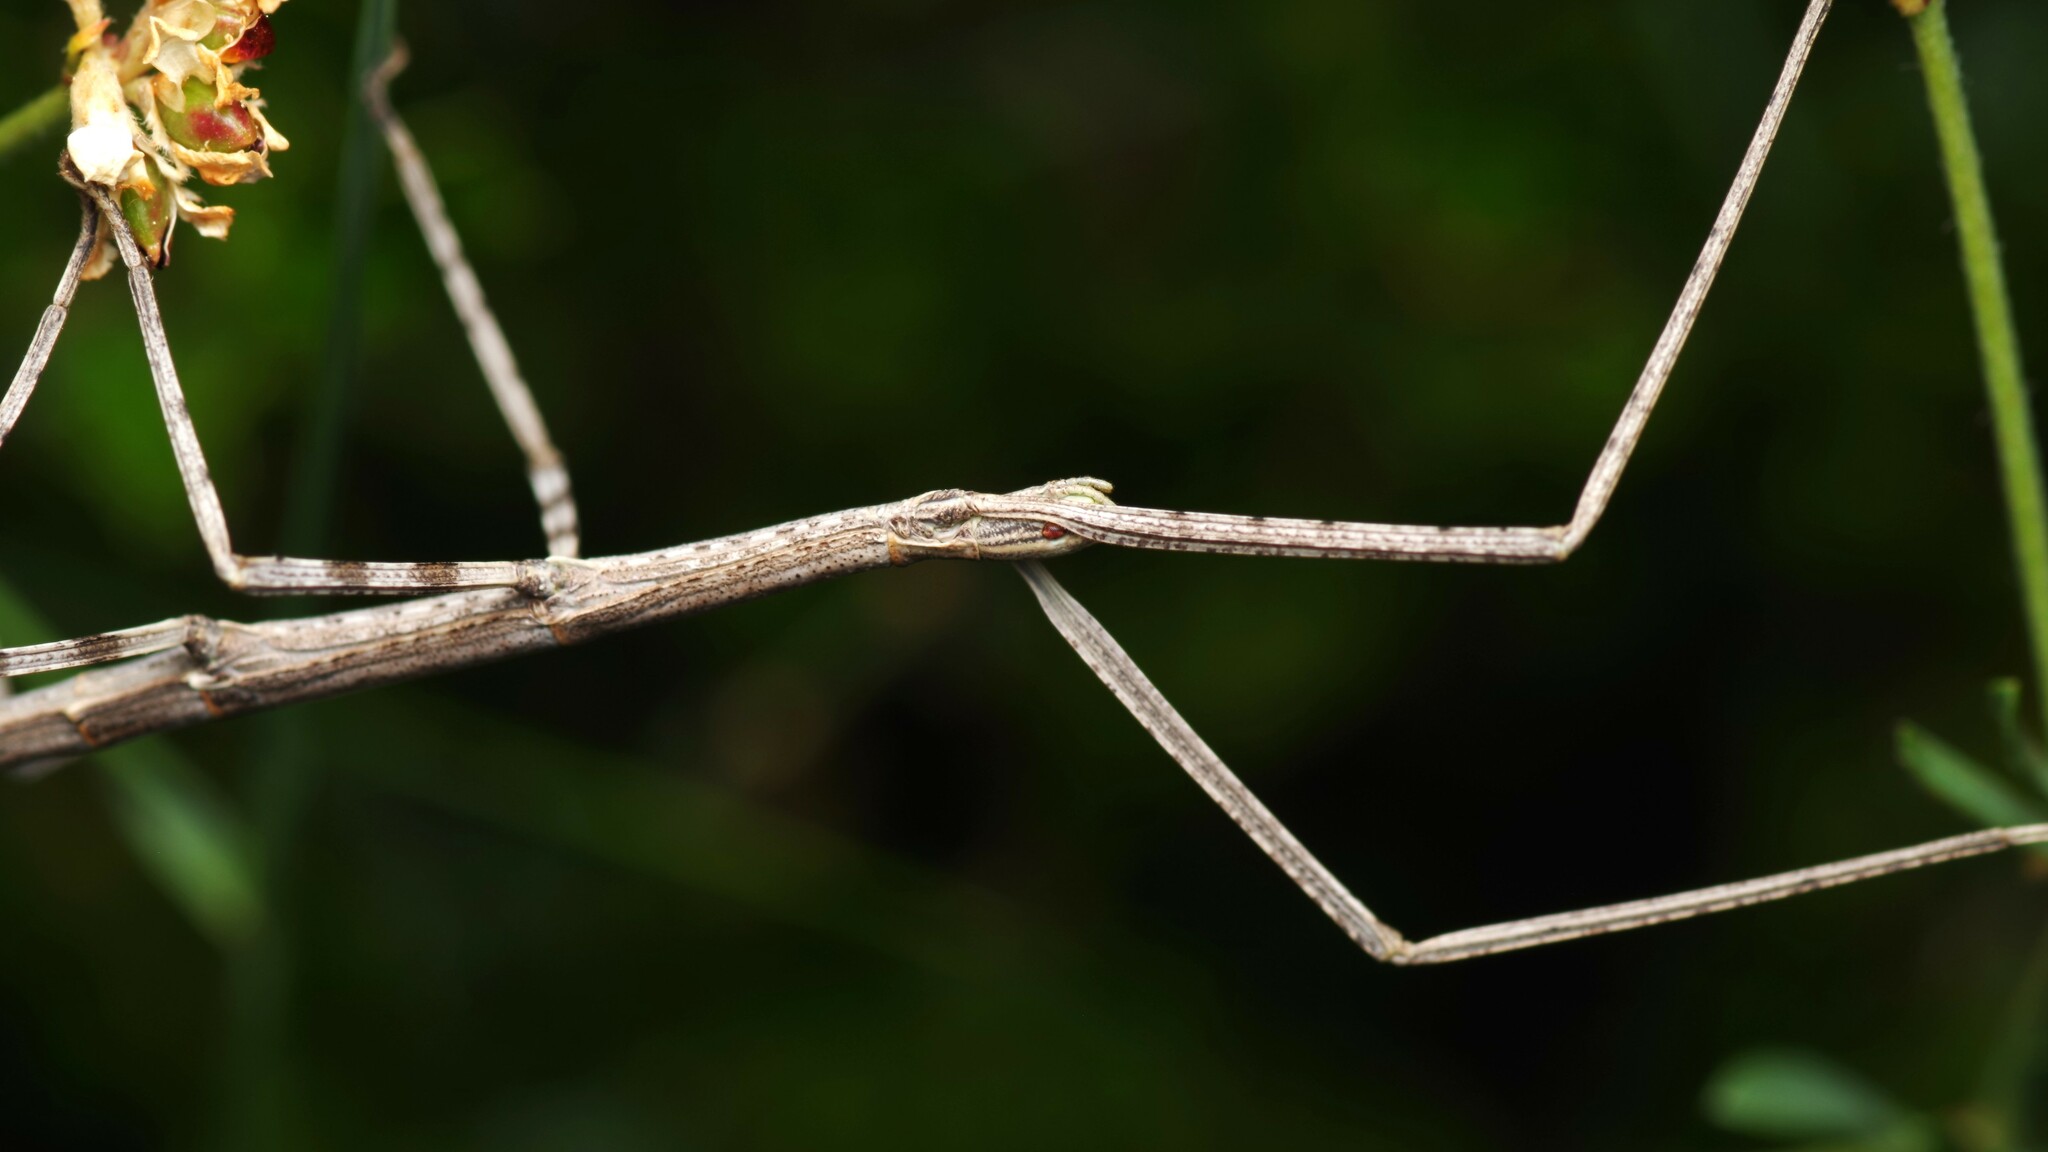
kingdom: Animalia
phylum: Arthropoda
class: Insecta
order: Phasmida
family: Bacillidae
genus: Clonopsis
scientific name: Clonopsis gallica
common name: French stick insect
